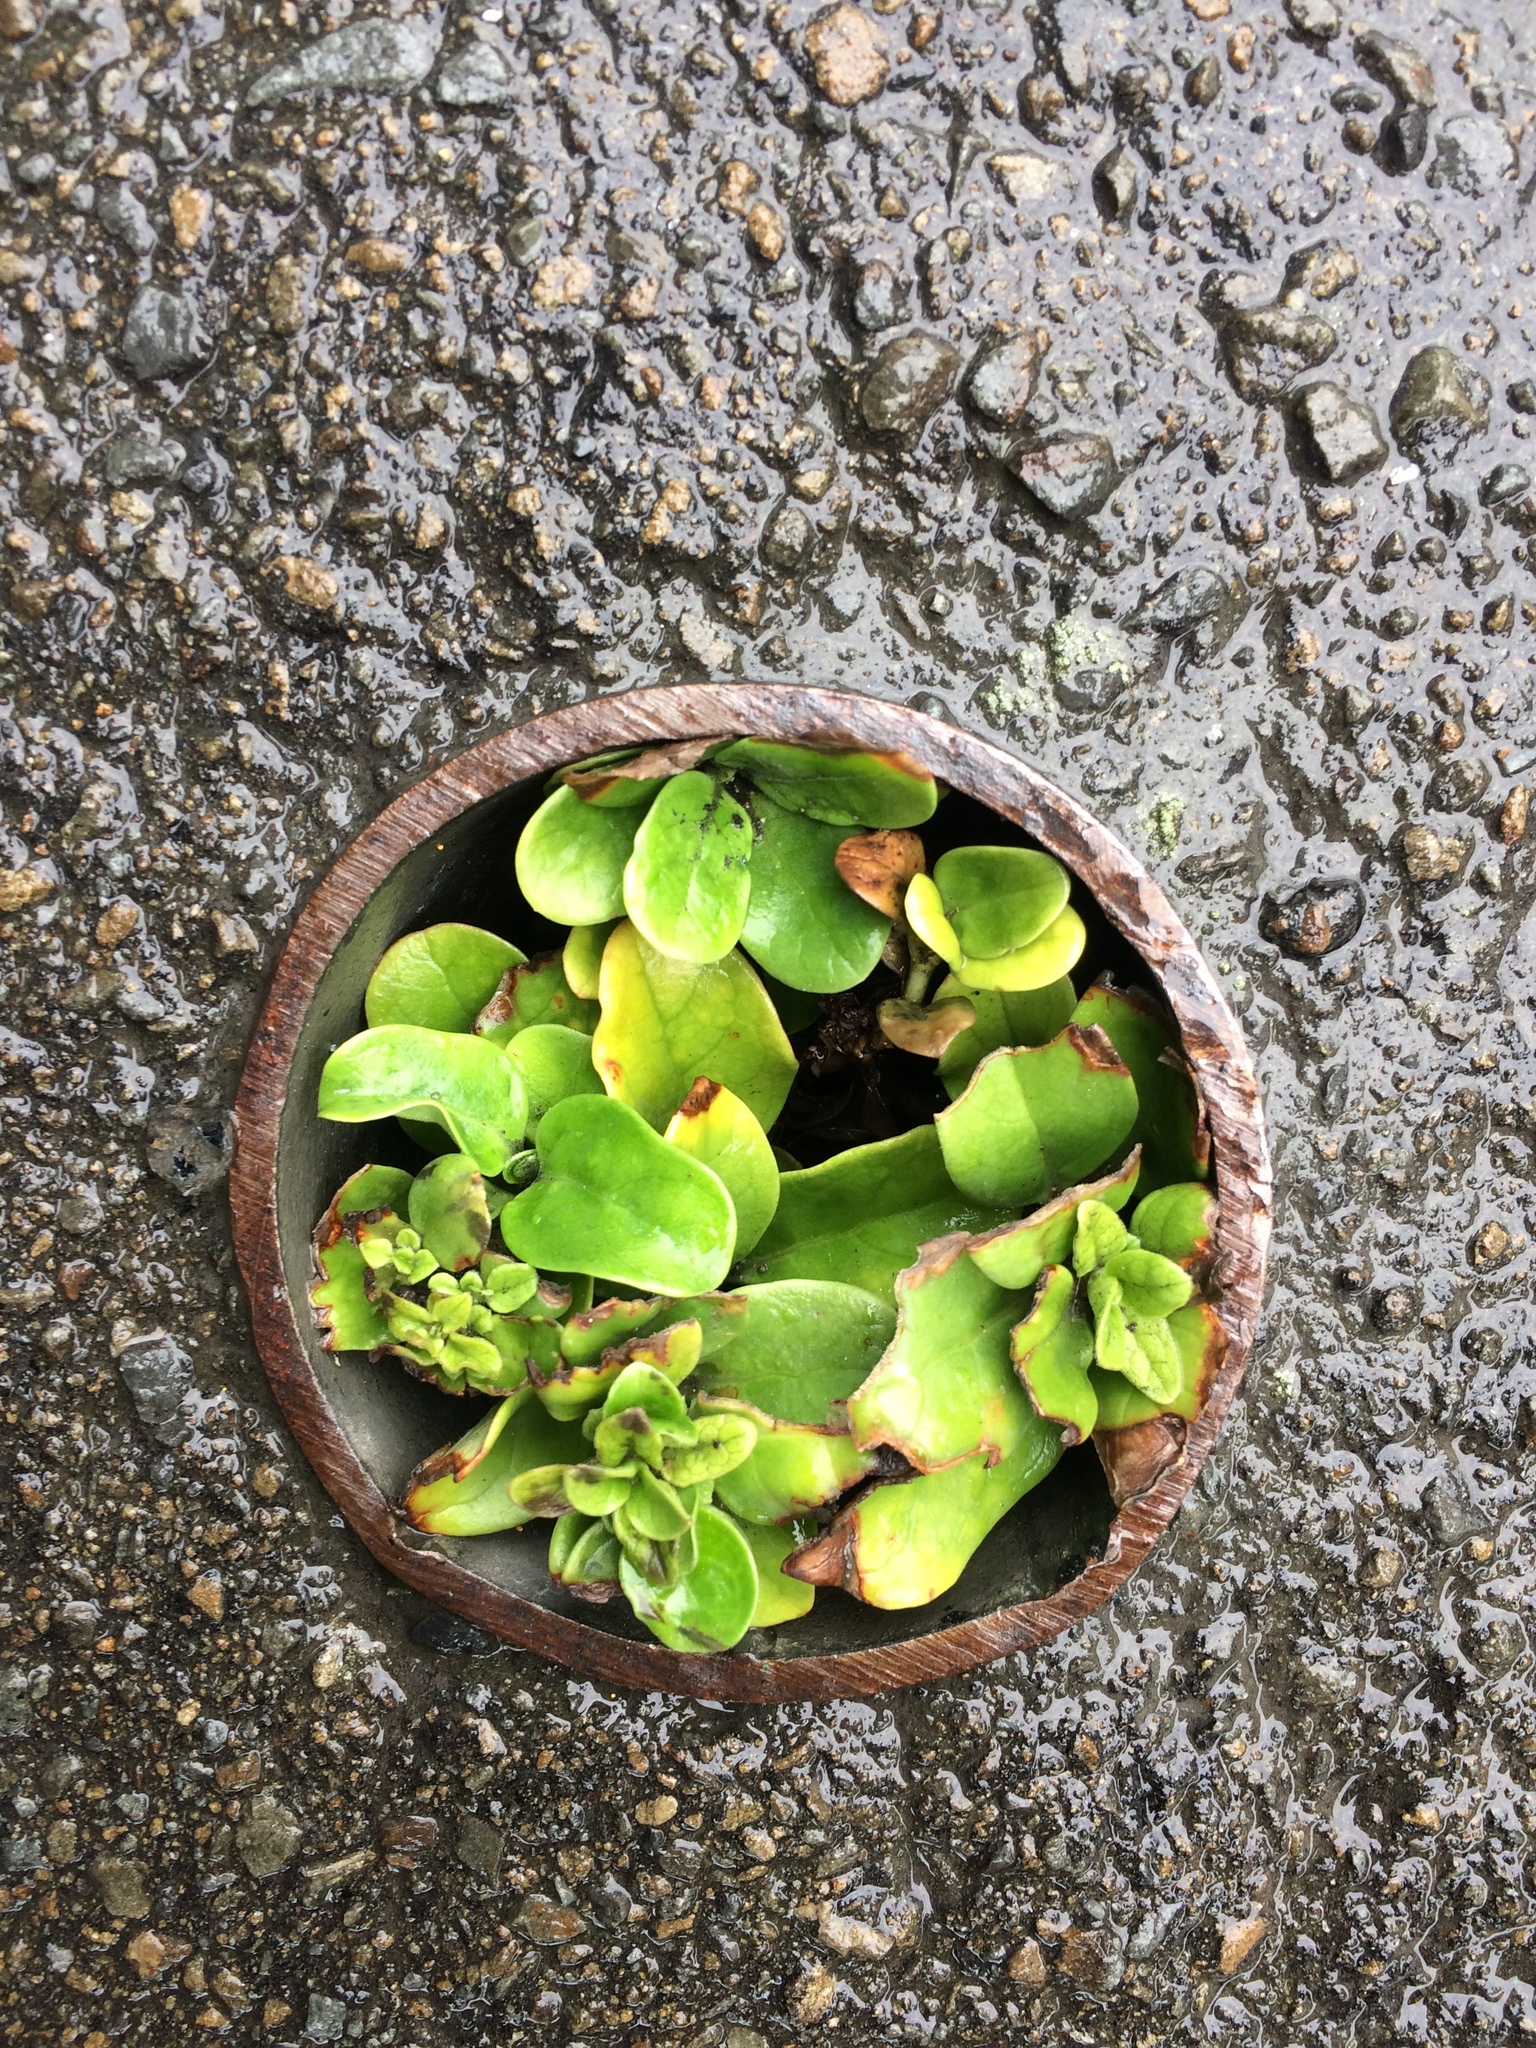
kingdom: Plantae
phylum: Tracheophyta
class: Magnoliopsida
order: Gentianales
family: Rubiaceae
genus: Coprosma
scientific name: Coprosma repens
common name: Tree bedstraw
